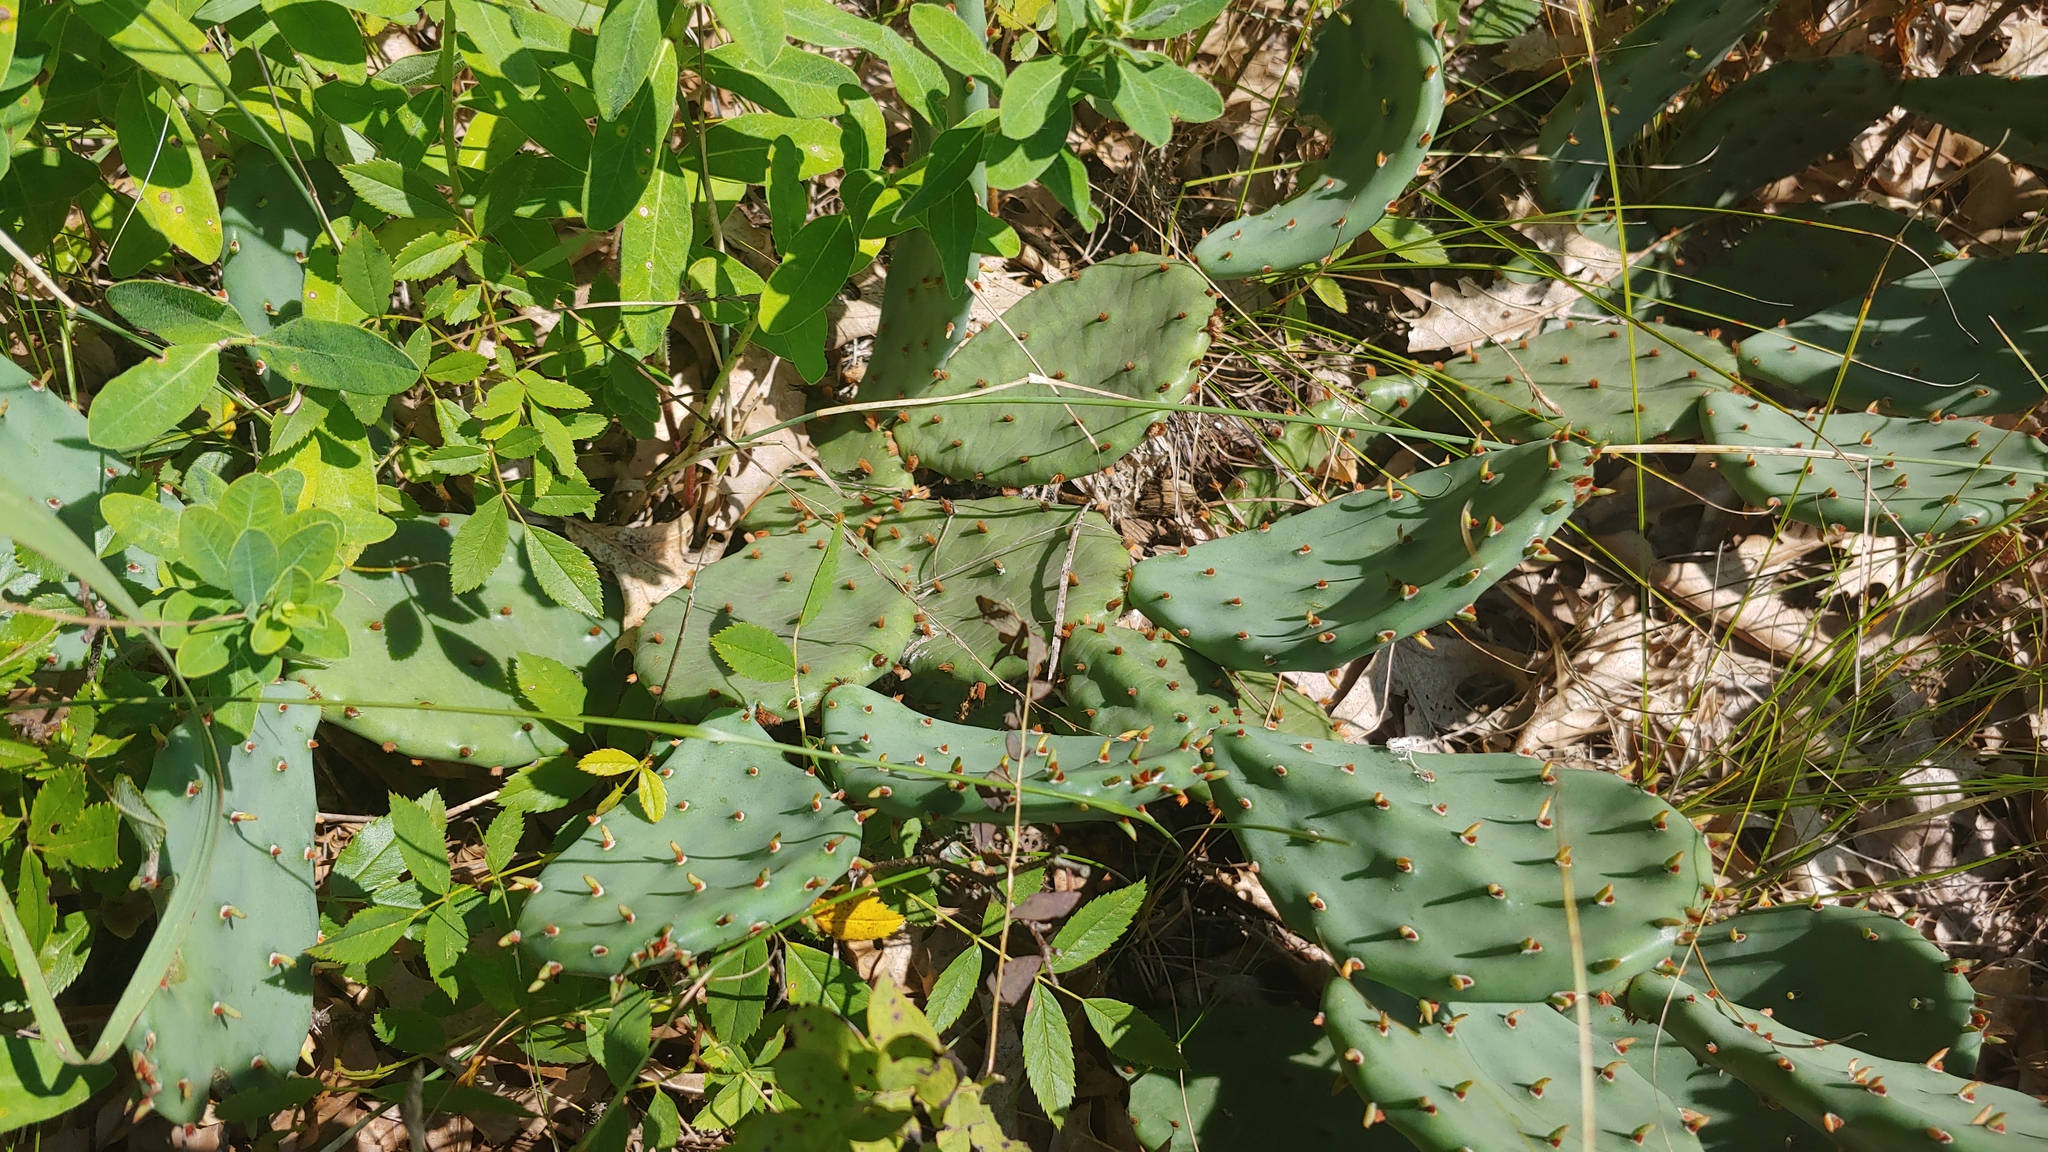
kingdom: Plantae
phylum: Tracheophyta
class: Magnoliopsida
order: Caryophyllales
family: Cactaceae
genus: Opuntia
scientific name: Opuntia humifusa
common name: Eastern prickly-pear
